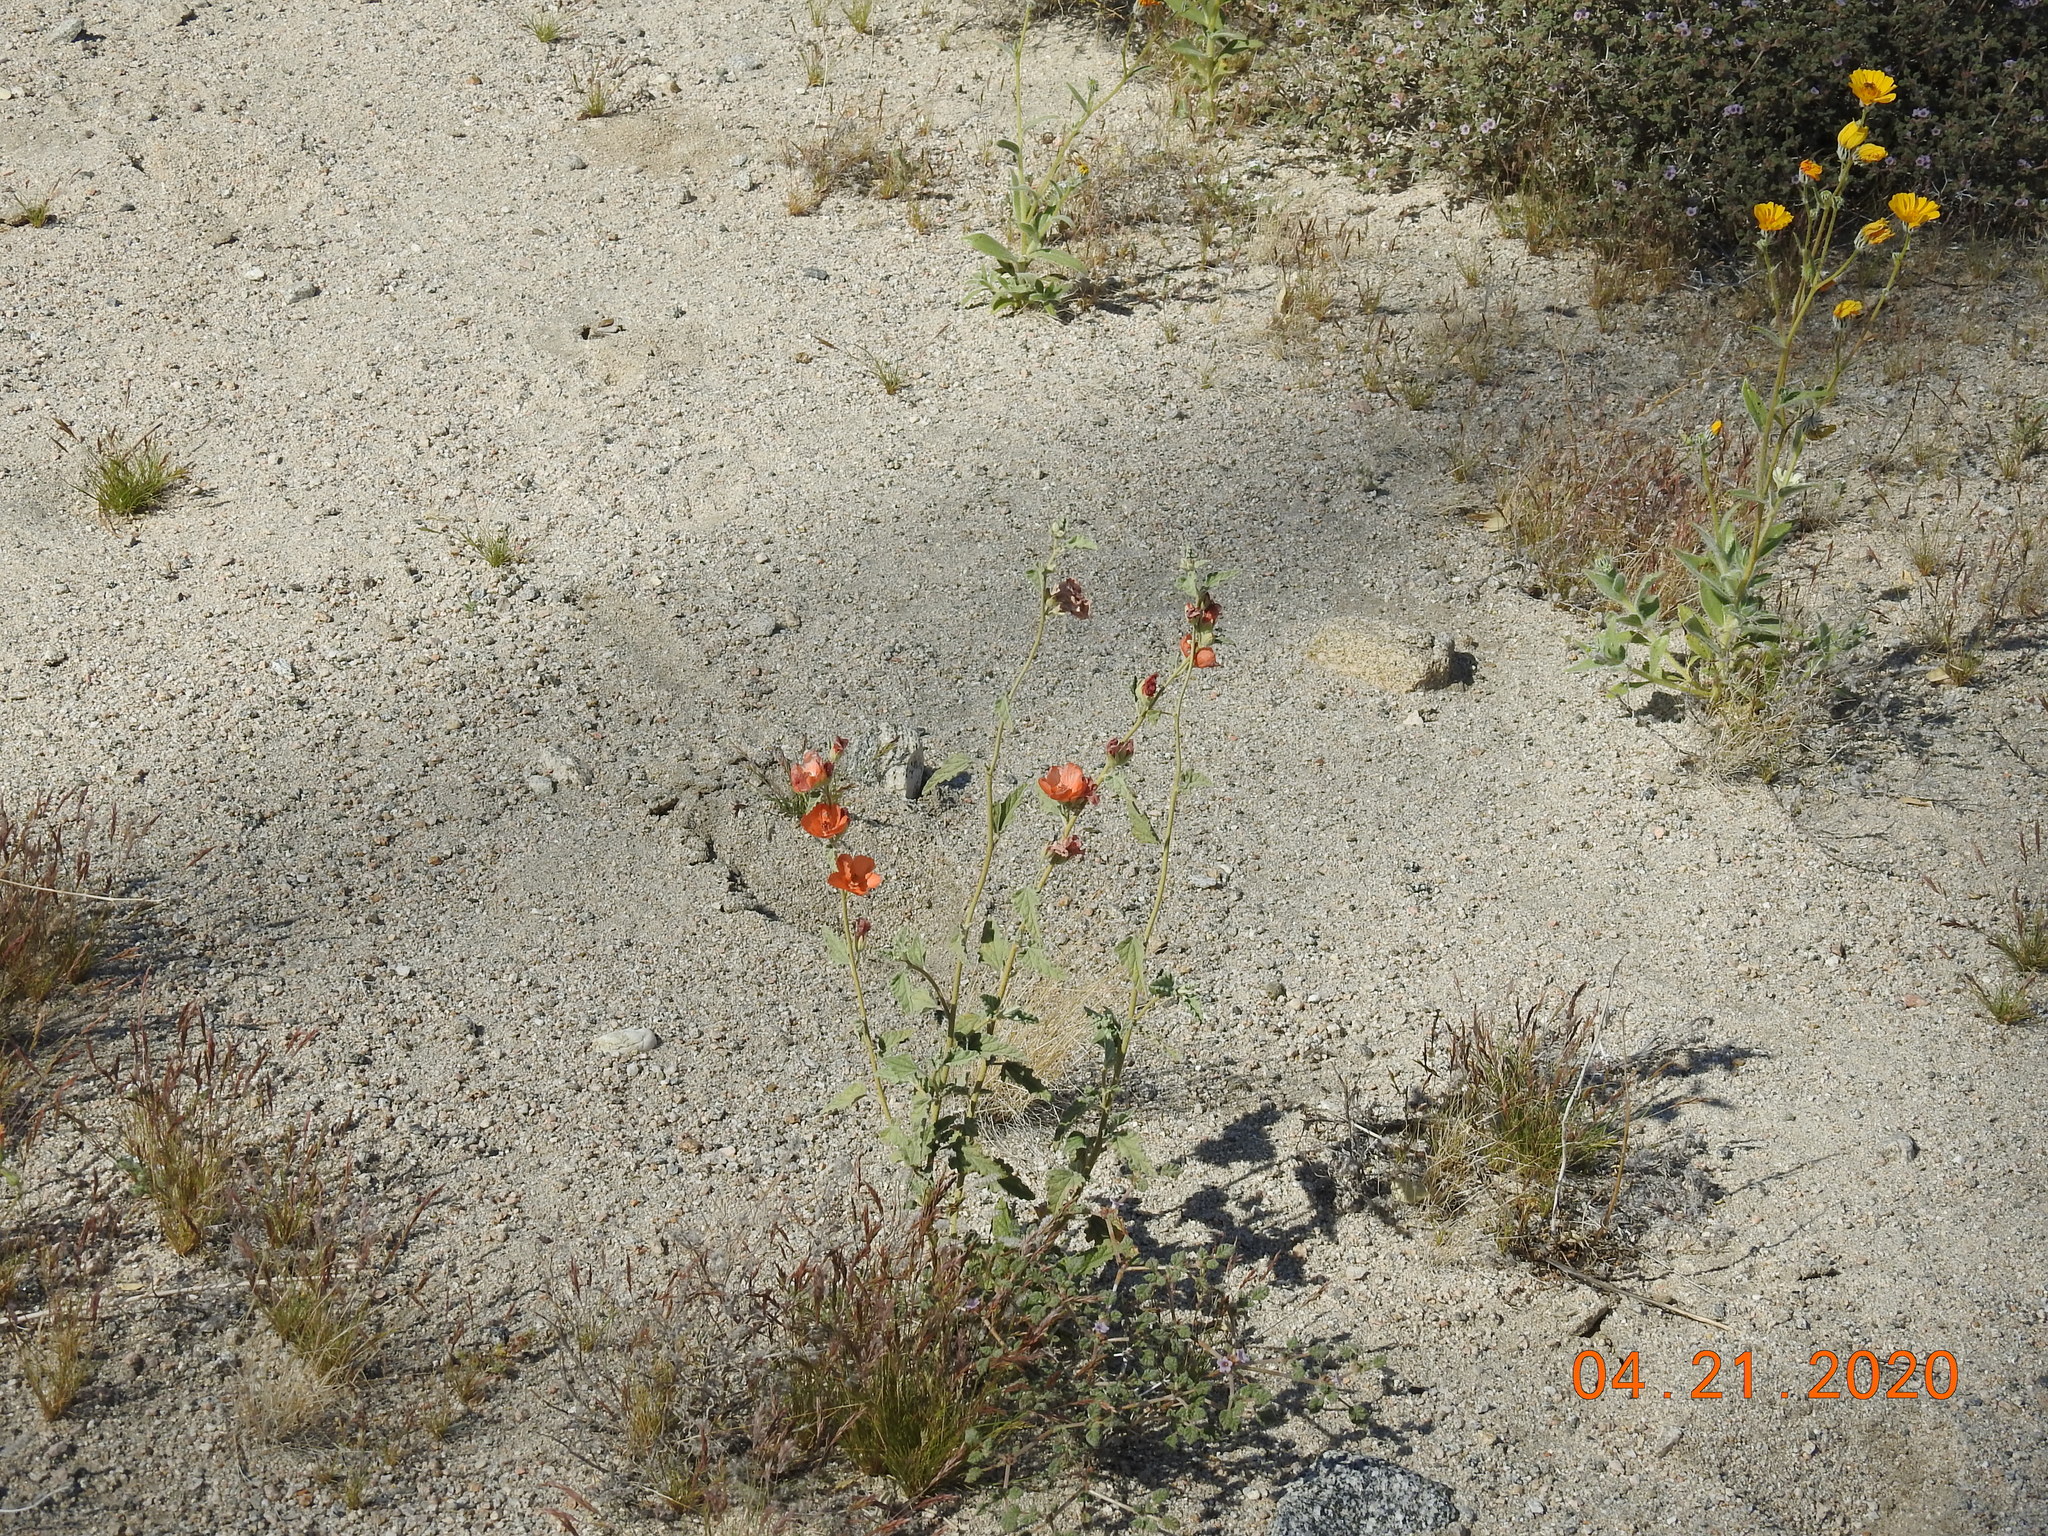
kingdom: Plantae
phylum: Tracheophyta
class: Magnoliopsida
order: Malvales
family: Malvaceae
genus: Sphaeralcea
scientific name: Sphaeralcea ambigua
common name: Apricot globe-mallow
